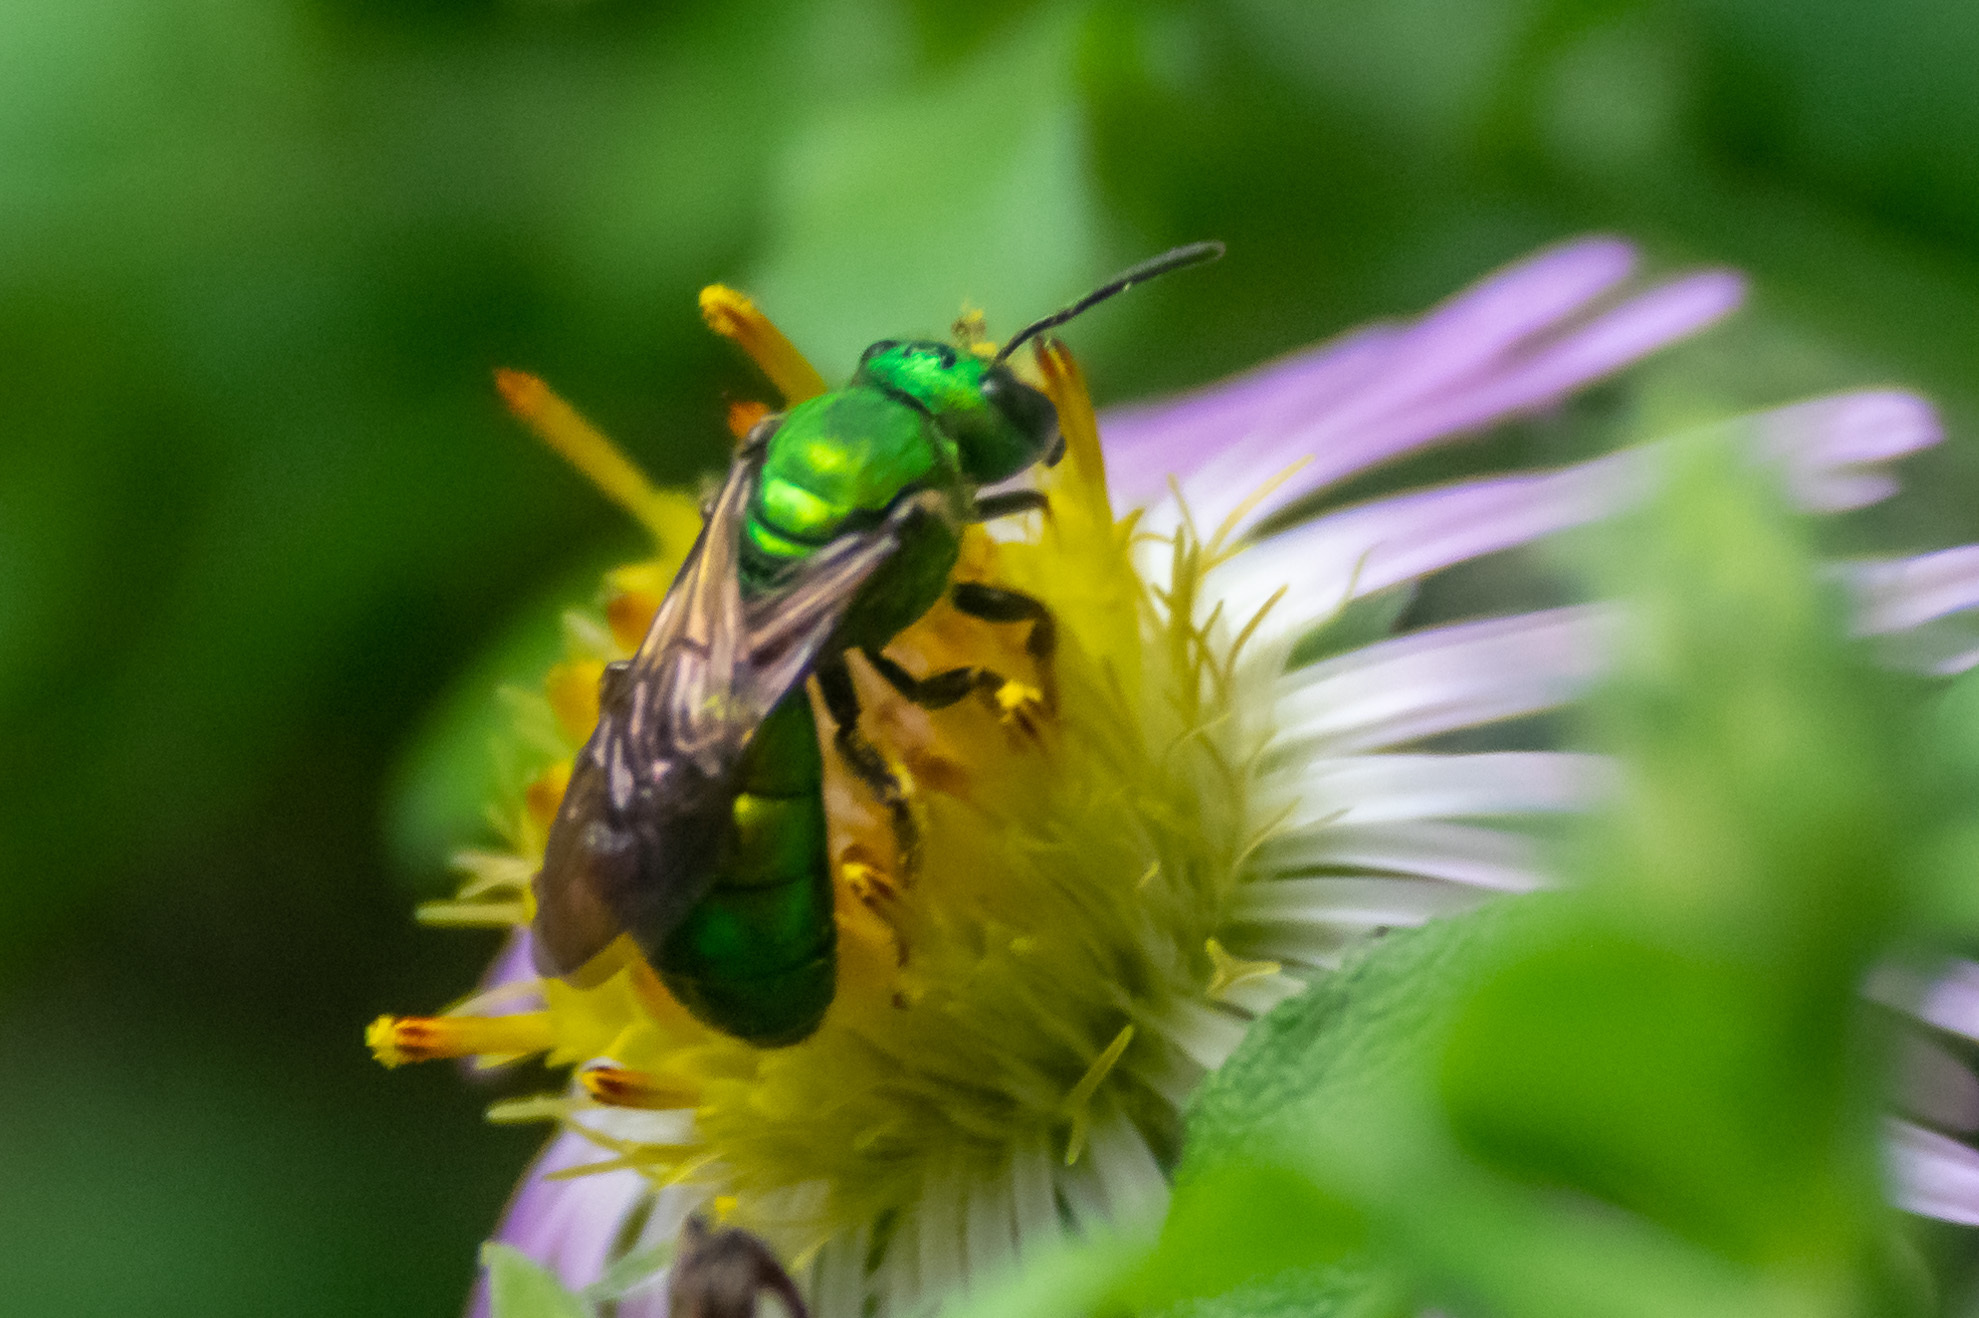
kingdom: Animalia
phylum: Arthropoda
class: Insecta
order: Hymenoptera
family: Halictidae
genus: Augochlora
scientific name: Augochlora pura
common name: Pure green sweat bee
